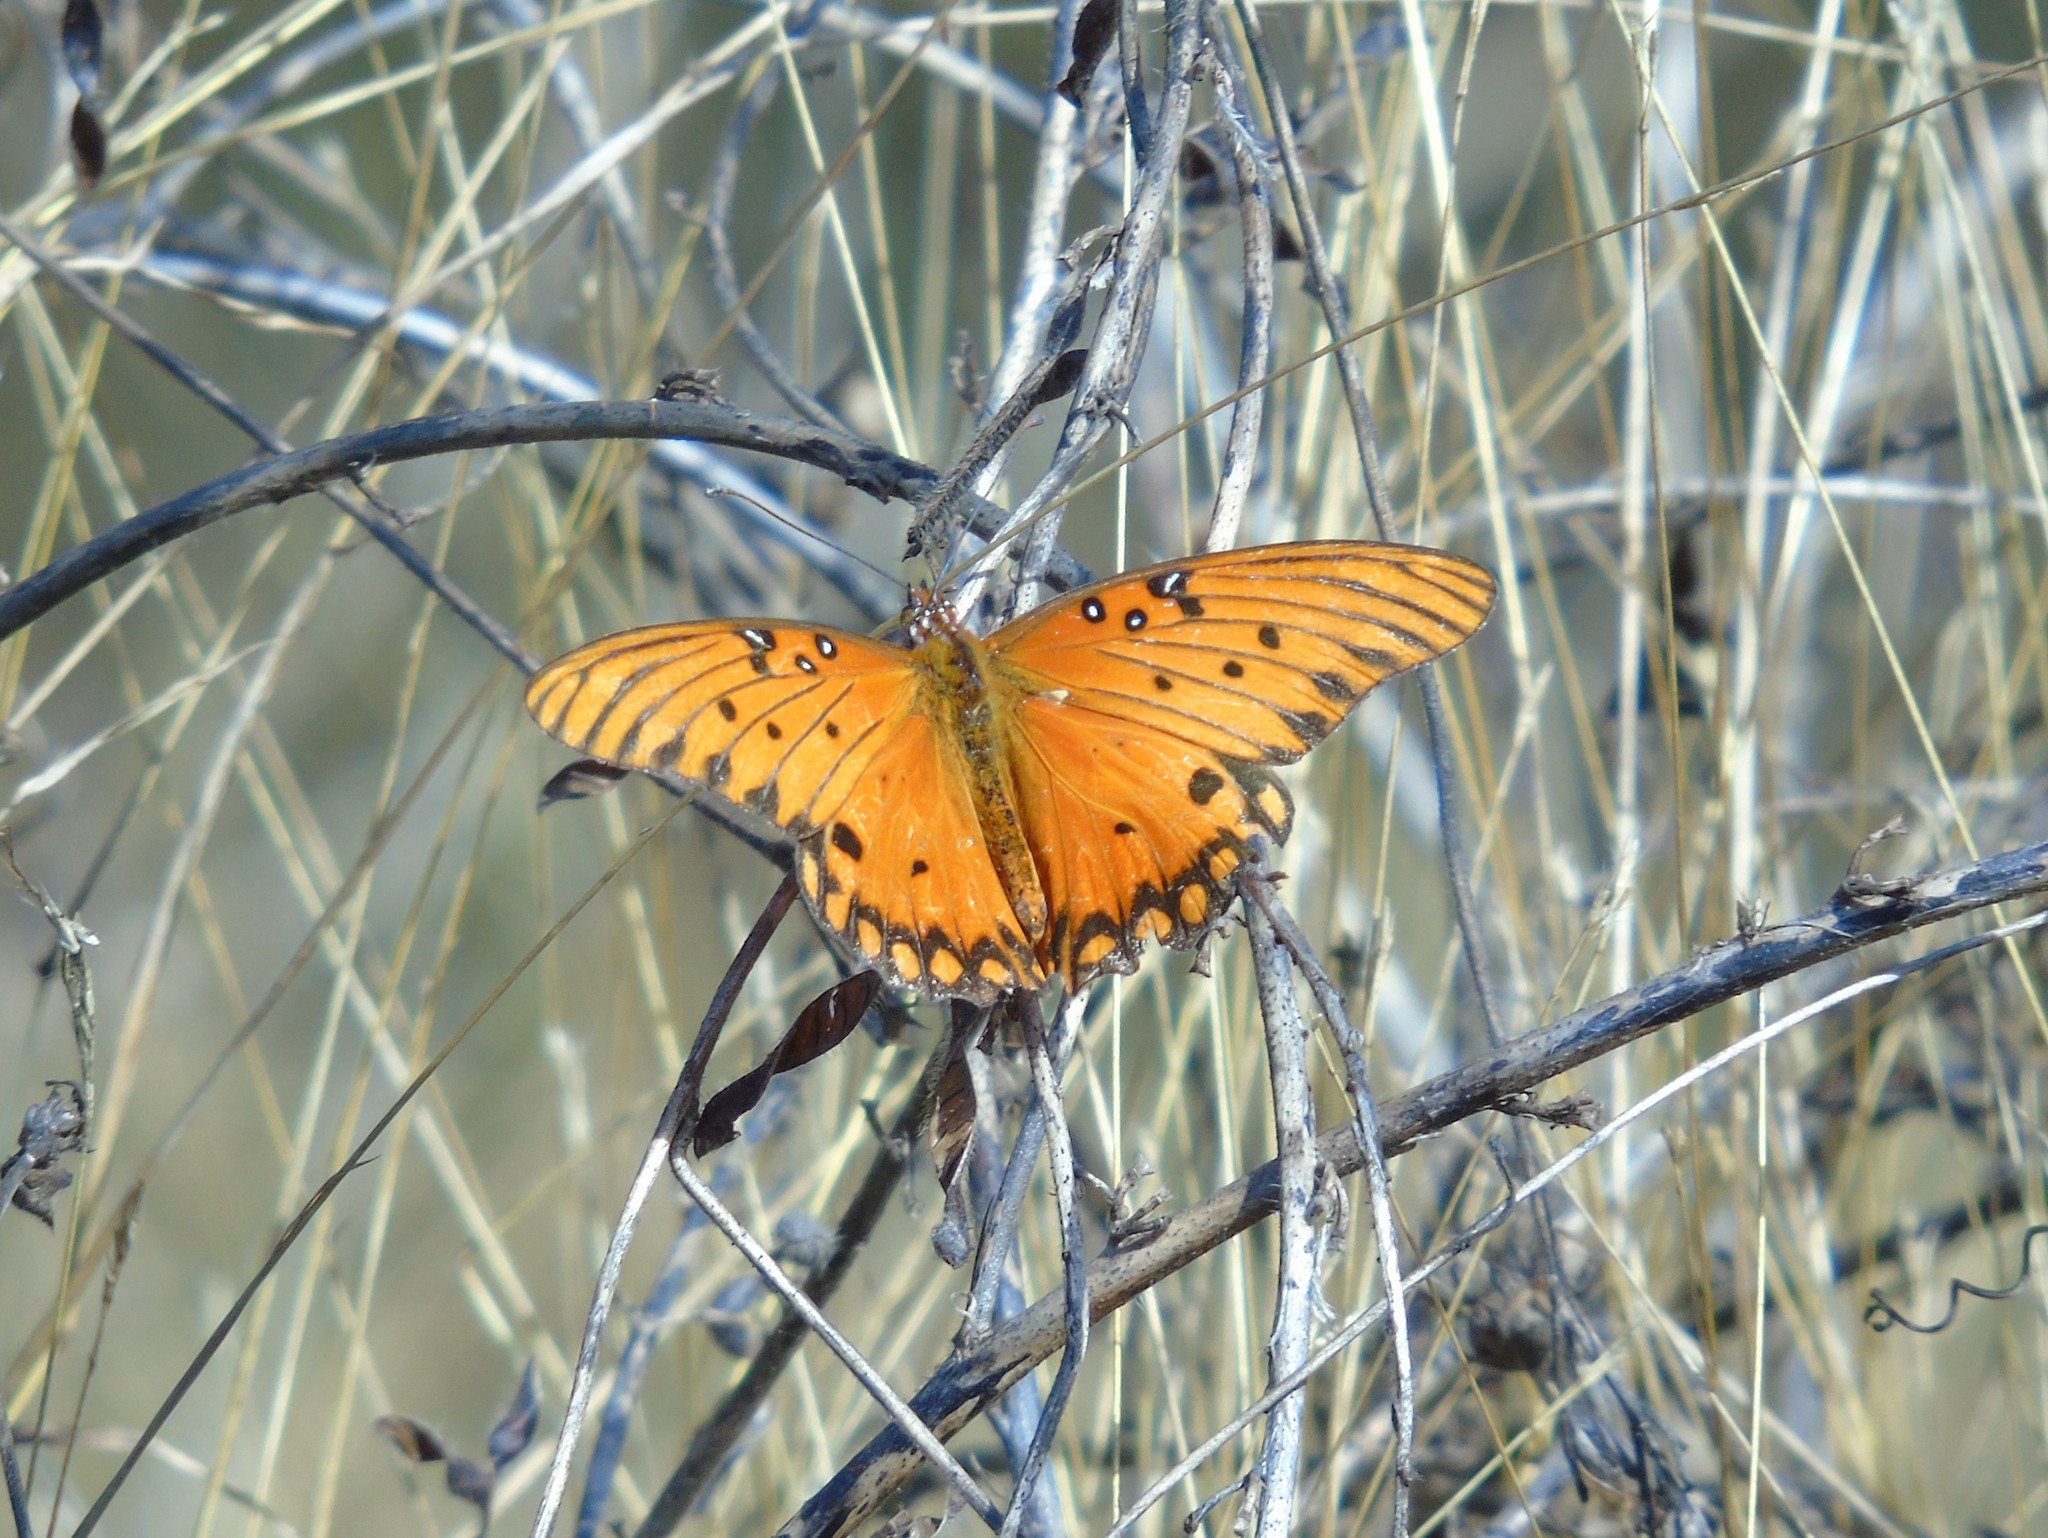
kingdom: Animalia
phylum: Arthropoda
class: Insecta
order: Lepidoptera
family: Nymphalidae
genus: Dione
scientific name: Dione vanillae
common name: Gulf fritillary
